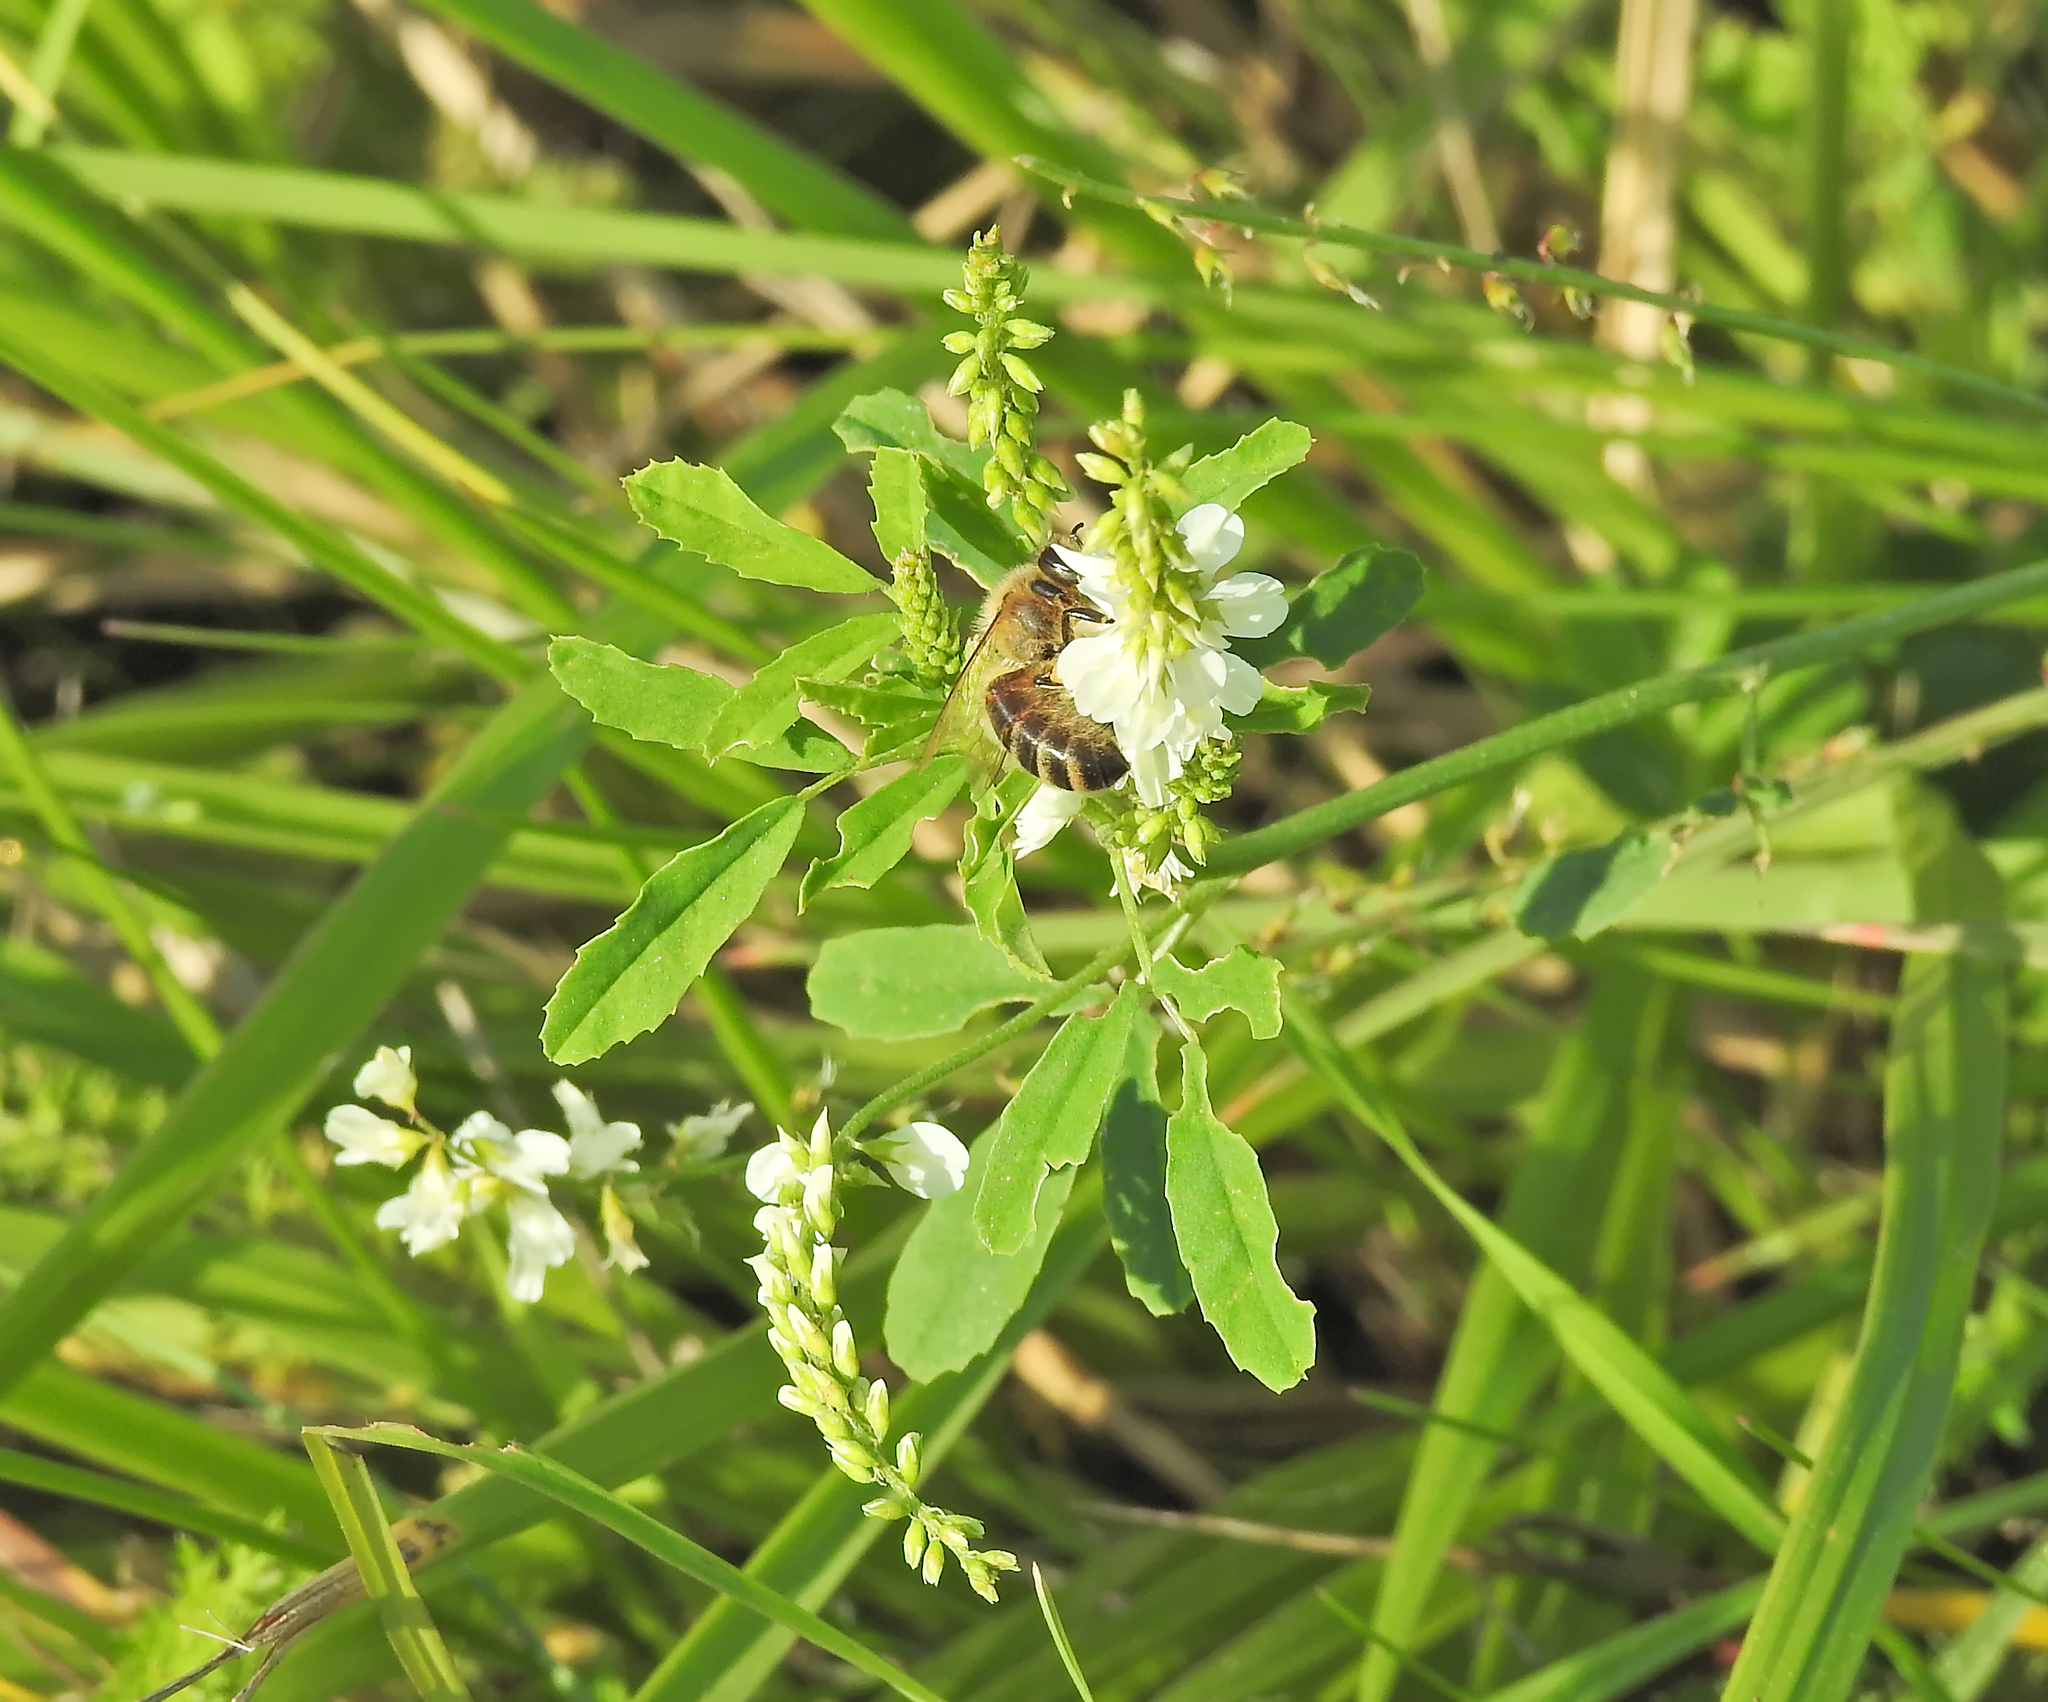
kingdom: Animalia
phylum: Arthropoda
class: Insecta
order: Hymenoptera
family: Apidae
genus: Apis
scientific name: Apis mellifera
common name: Honey bee
